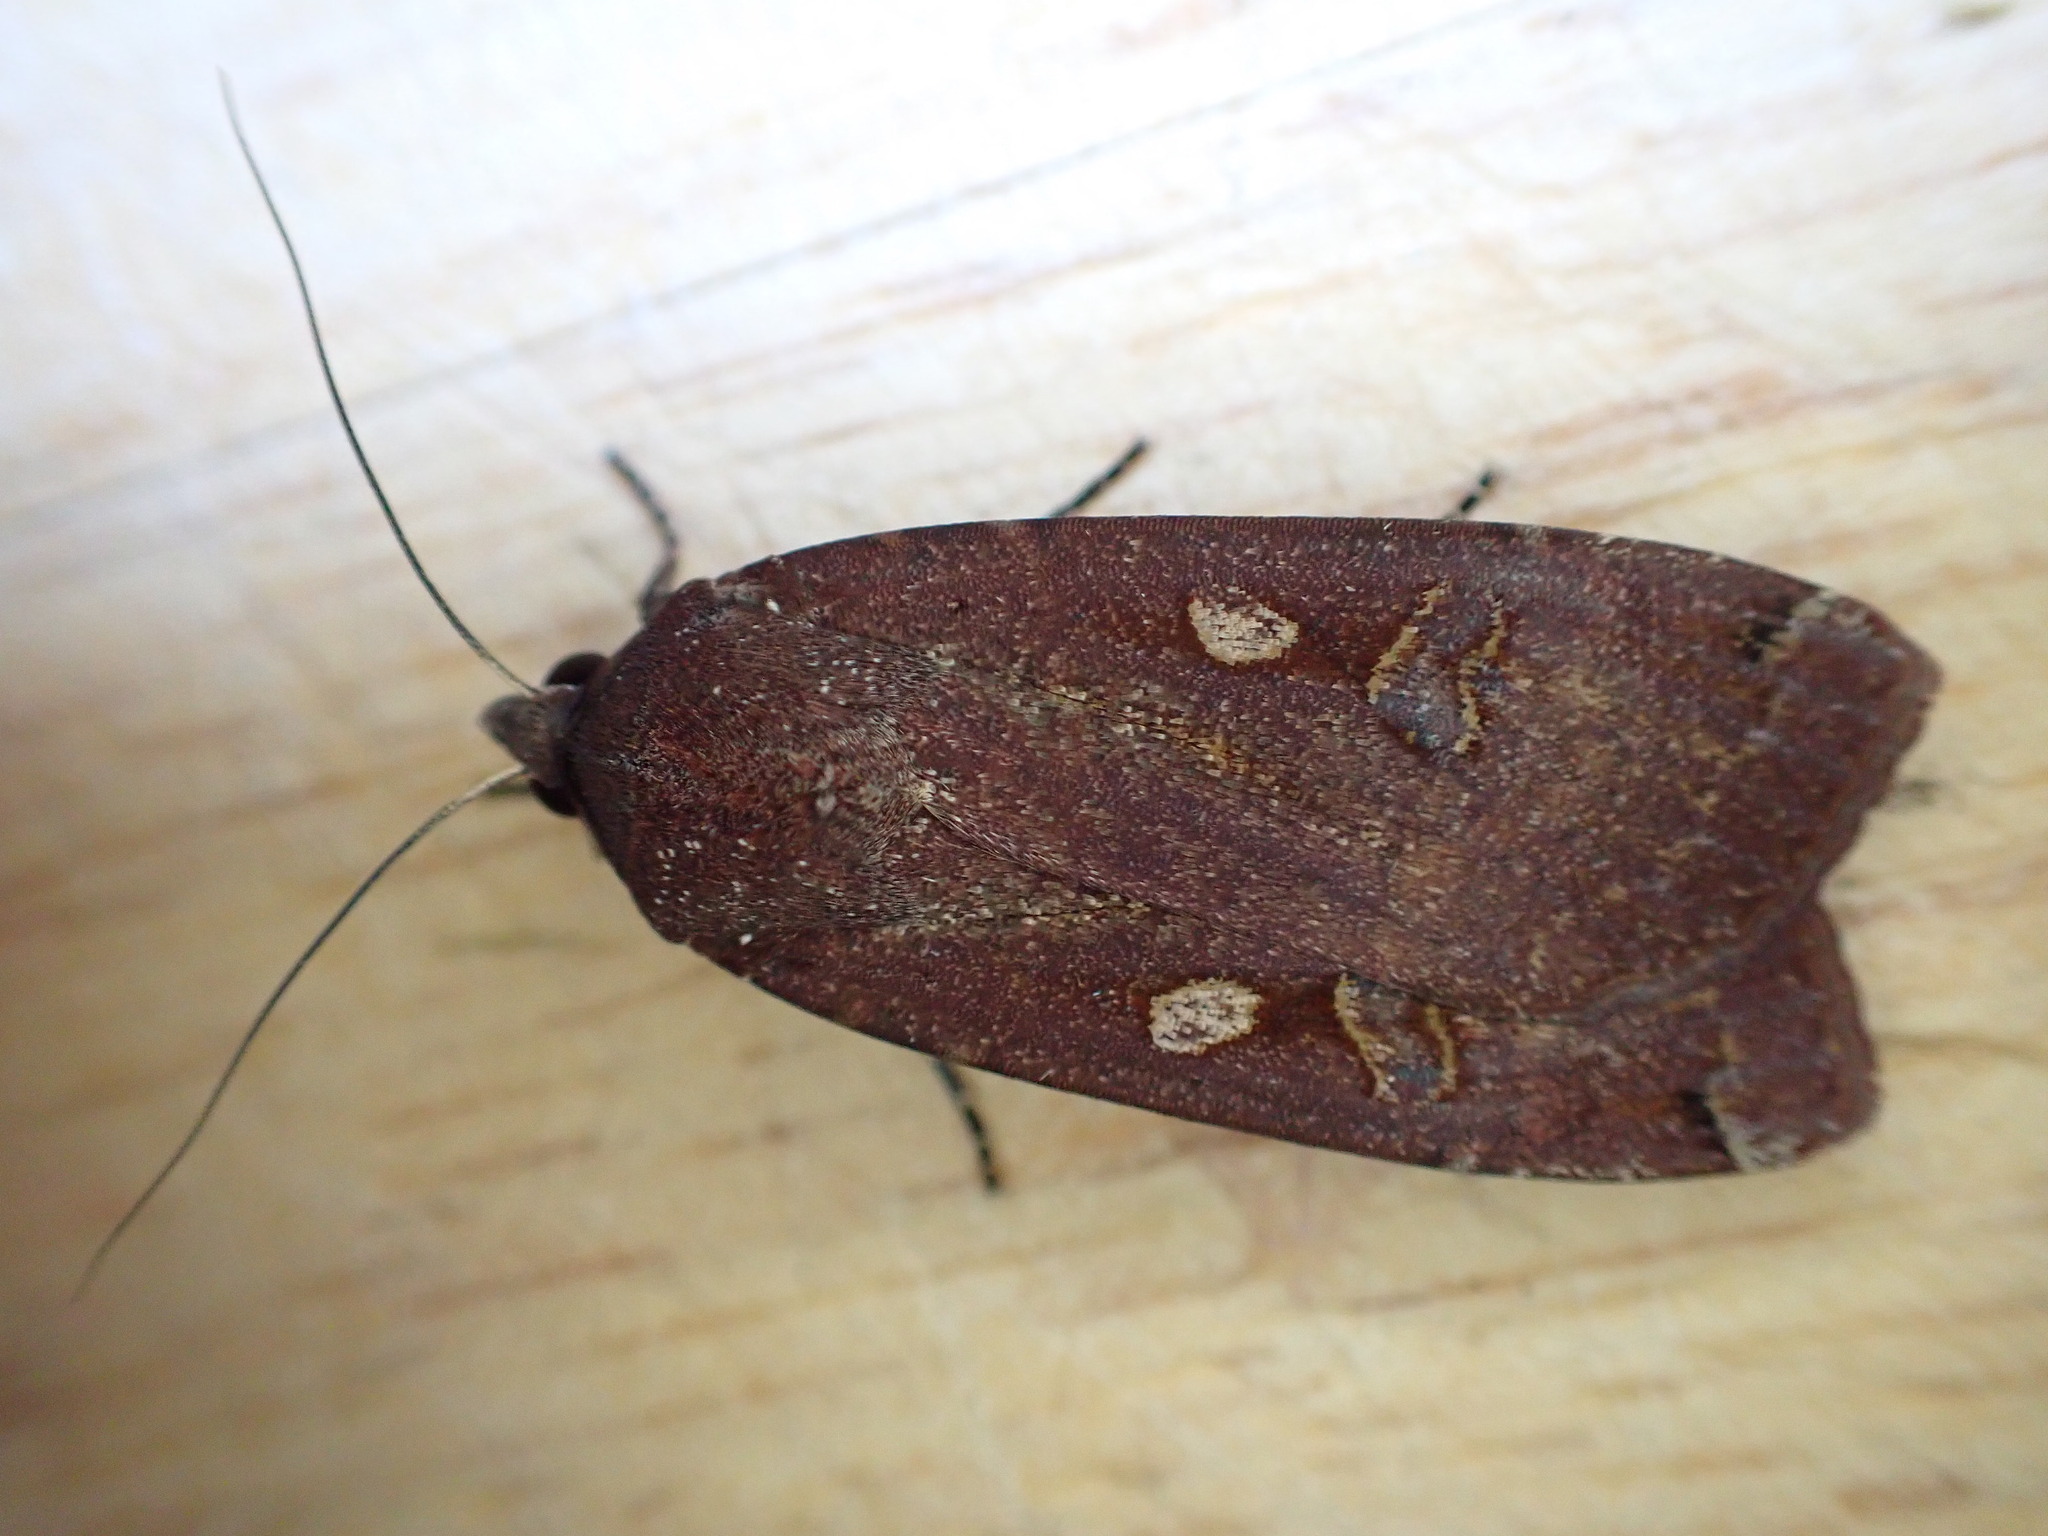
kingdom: Animalia
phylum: Arthropoda
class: Insecta
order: Lepidoptera
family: Noctuidae
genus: Noctua
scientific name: Noctua pronuba
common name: Large yellow underwing
